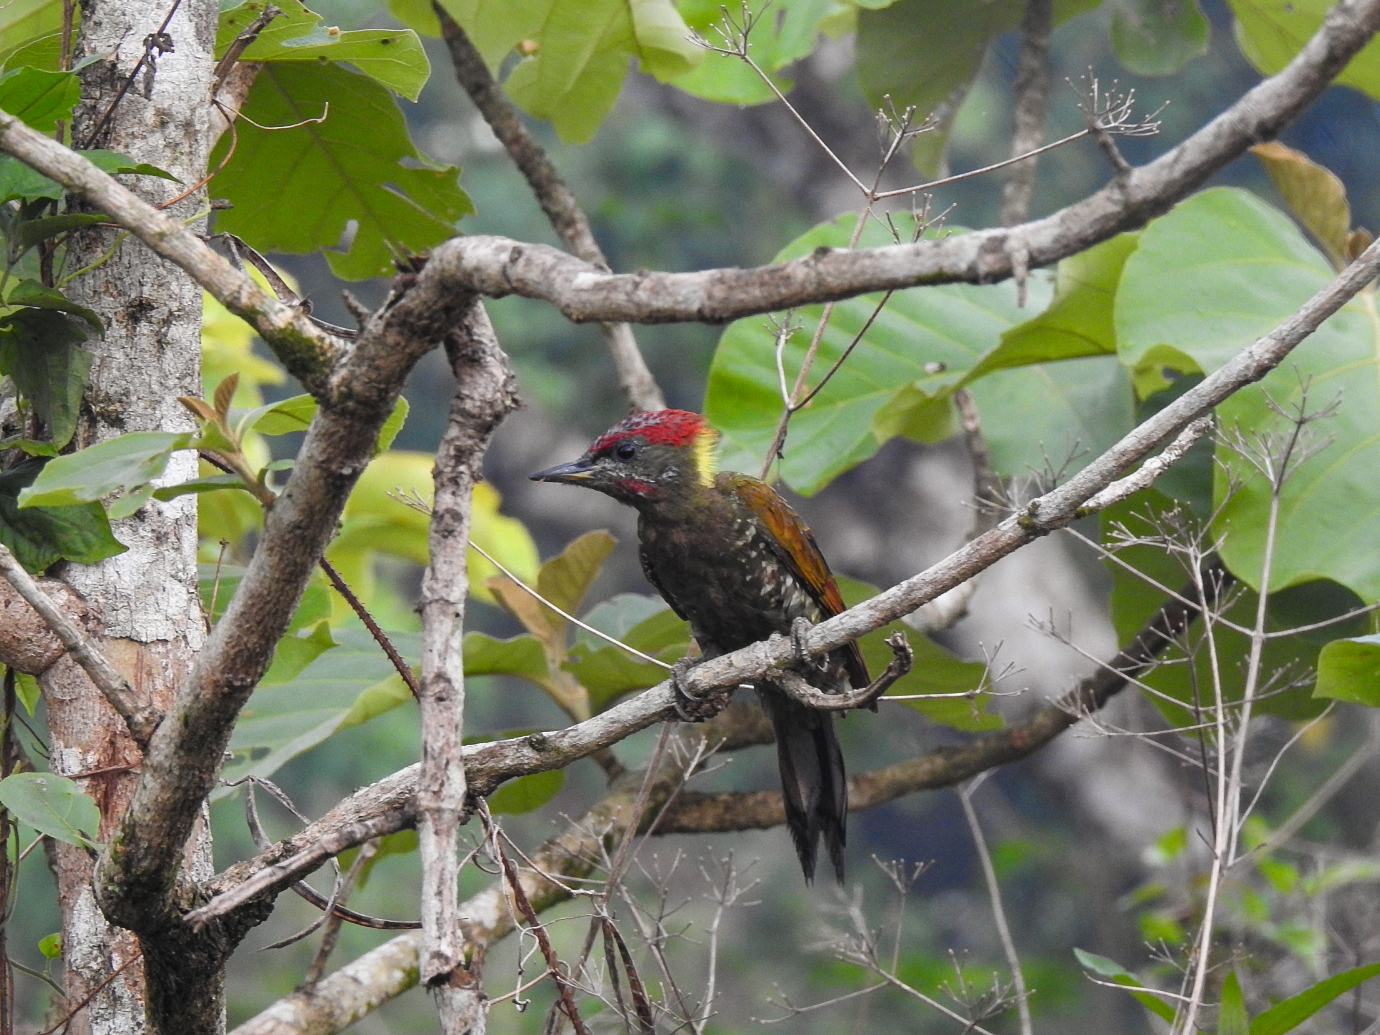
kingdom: Animalia
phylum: Chordata
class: Aves
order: Piciformes
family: Picidae
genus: Picus
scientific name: Picus chlorolophus
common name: Lesser yellownape
